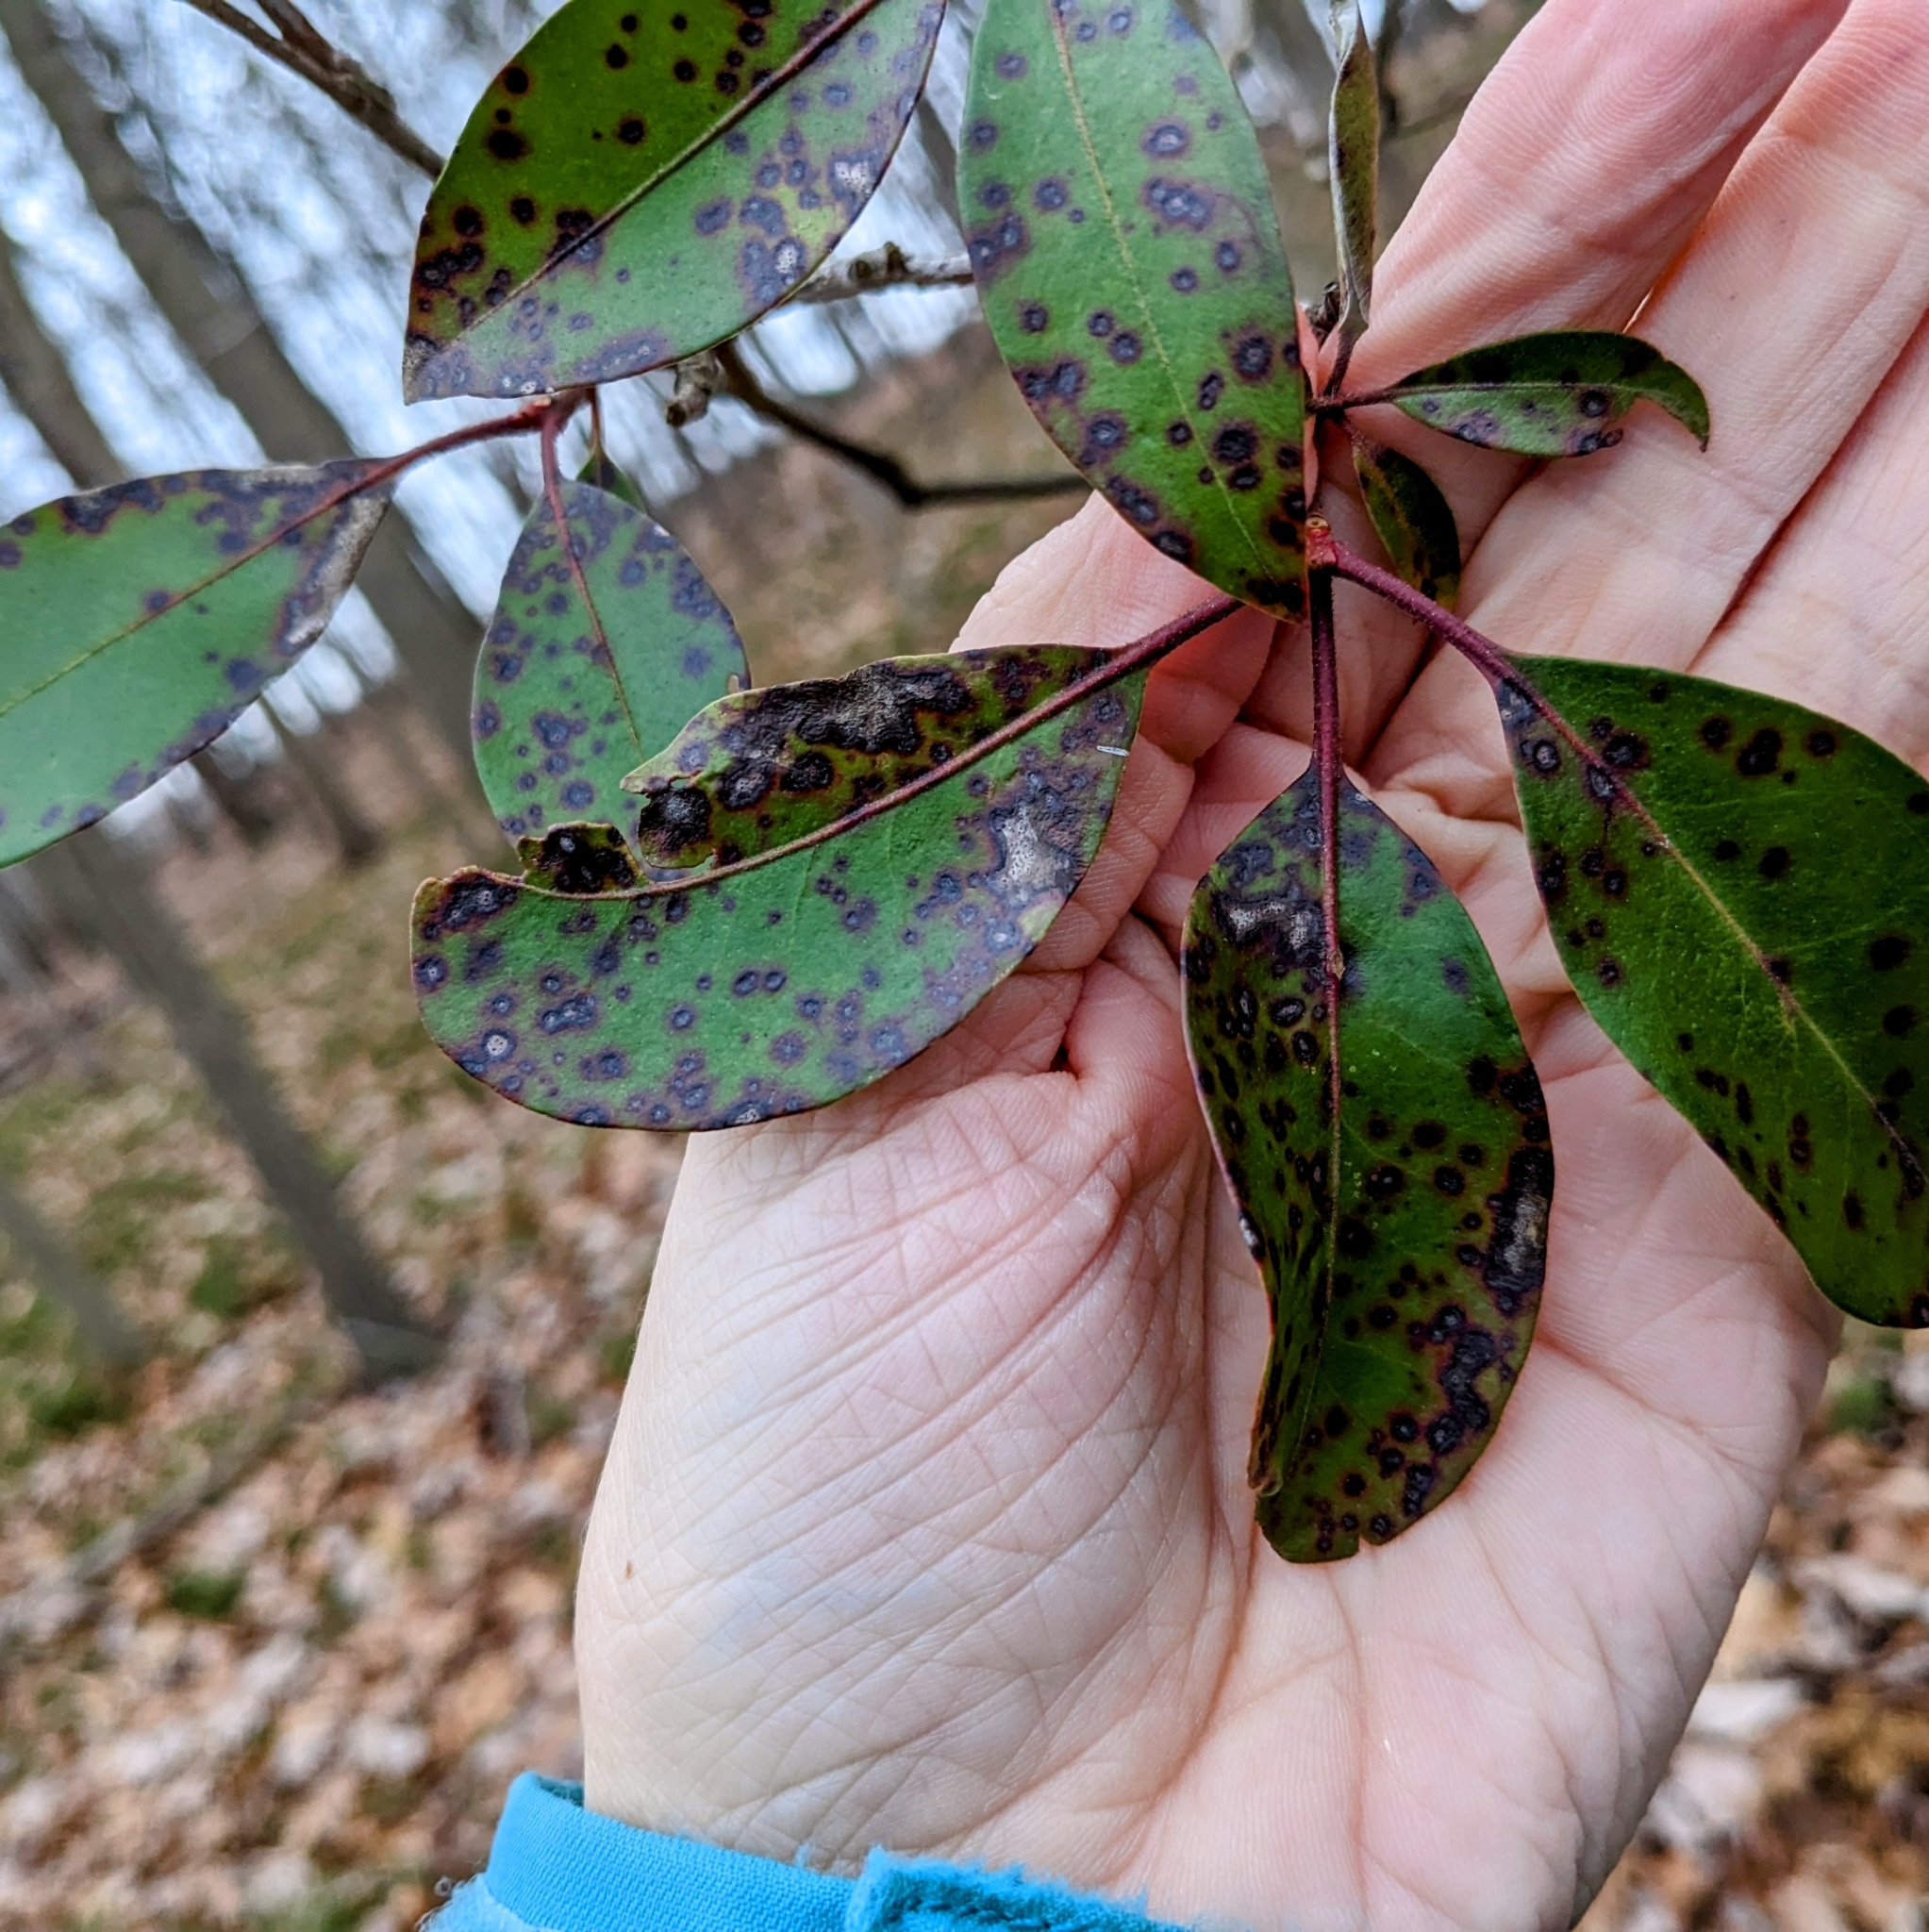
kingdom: Plantae
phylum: Tracheophyta
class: Magnoliopsida
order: Ericales
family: Ericaceae
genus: Kalmia
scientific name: Kalmia latifolia
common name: Mountain-laurel
